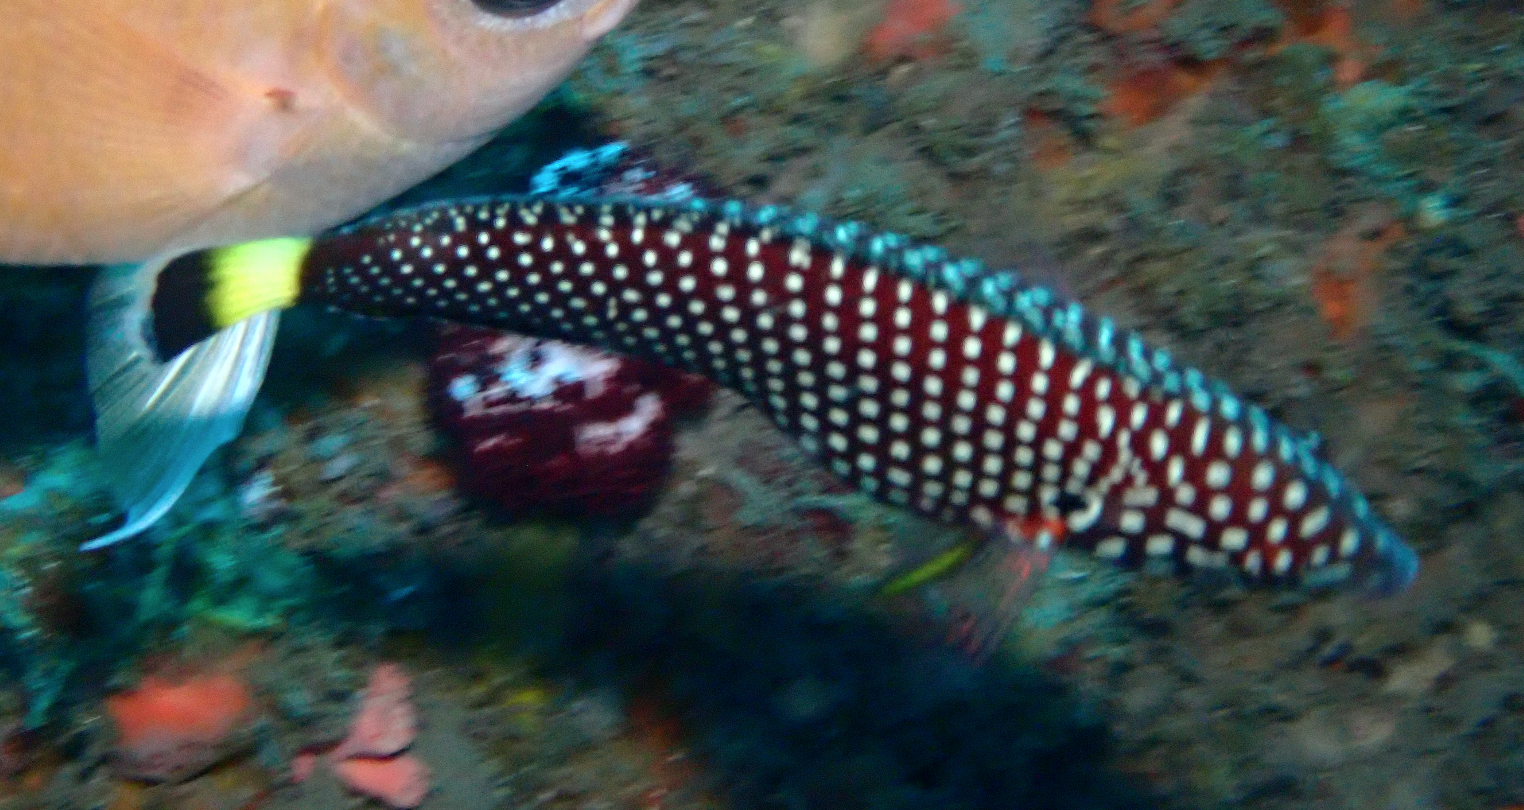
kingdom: Animalia
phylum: Chordata
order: Perciformes
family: Labridae
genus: Anampses
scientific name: Anampses melanurus
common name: White-spotted wrasse
